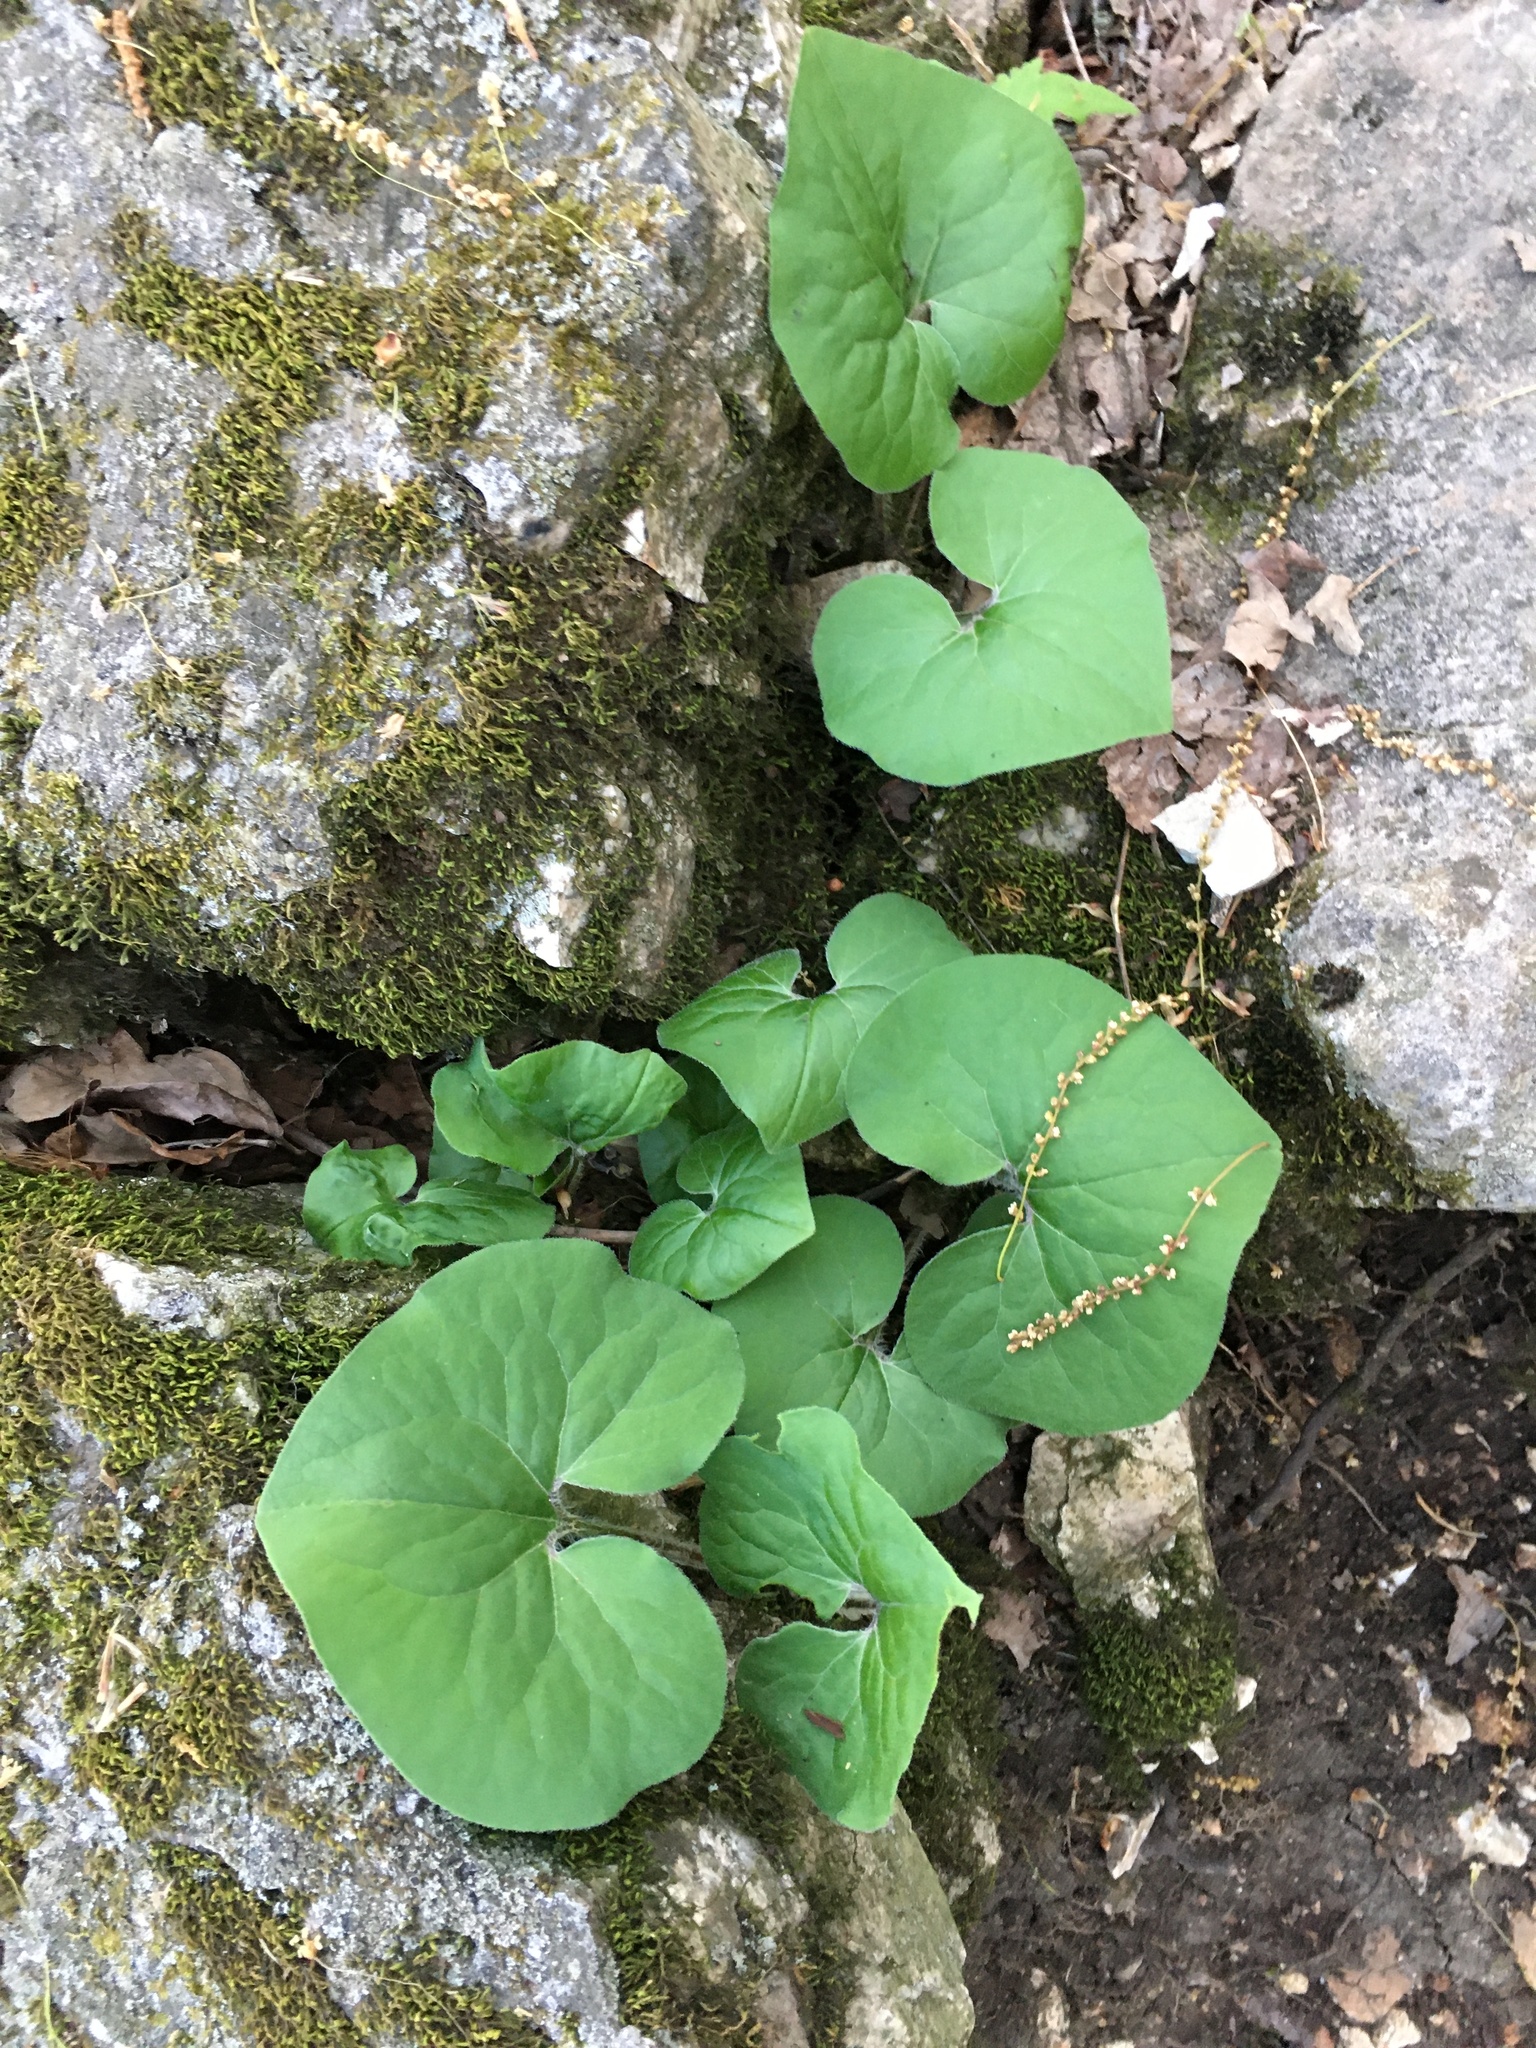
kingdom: Plantae
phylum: Tracheophyta
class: Magnoliopsida
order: Piperales
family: Aristolochiaceae
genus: Asarum
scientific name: Asarum canadense
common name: Wild ginger
